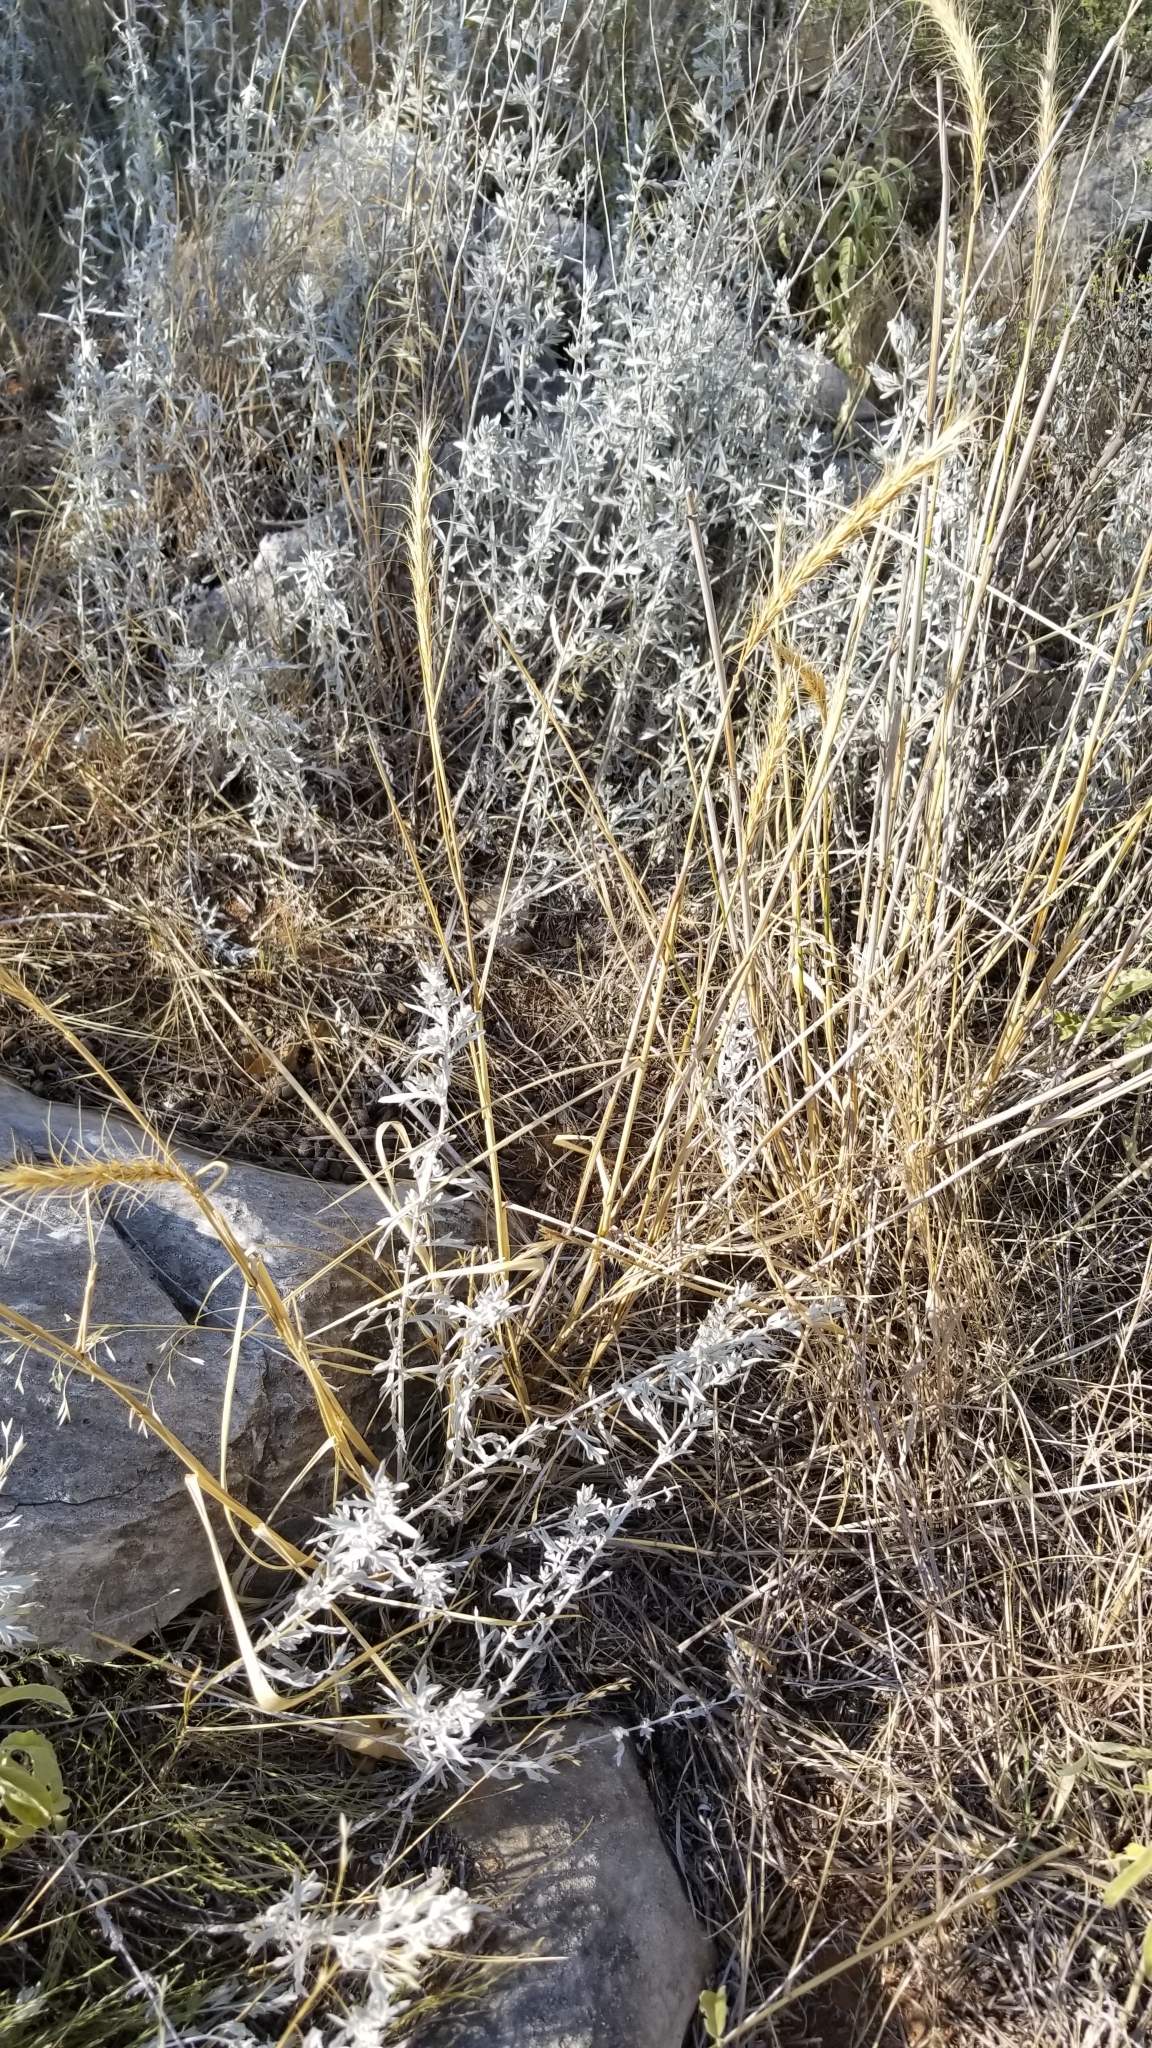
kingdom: Plantae
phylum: Tracheophyta
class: Liliopsida
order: Poales
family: Poaceae
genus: Elymus
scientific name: Elymus canadensis
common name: Canada wild rye
